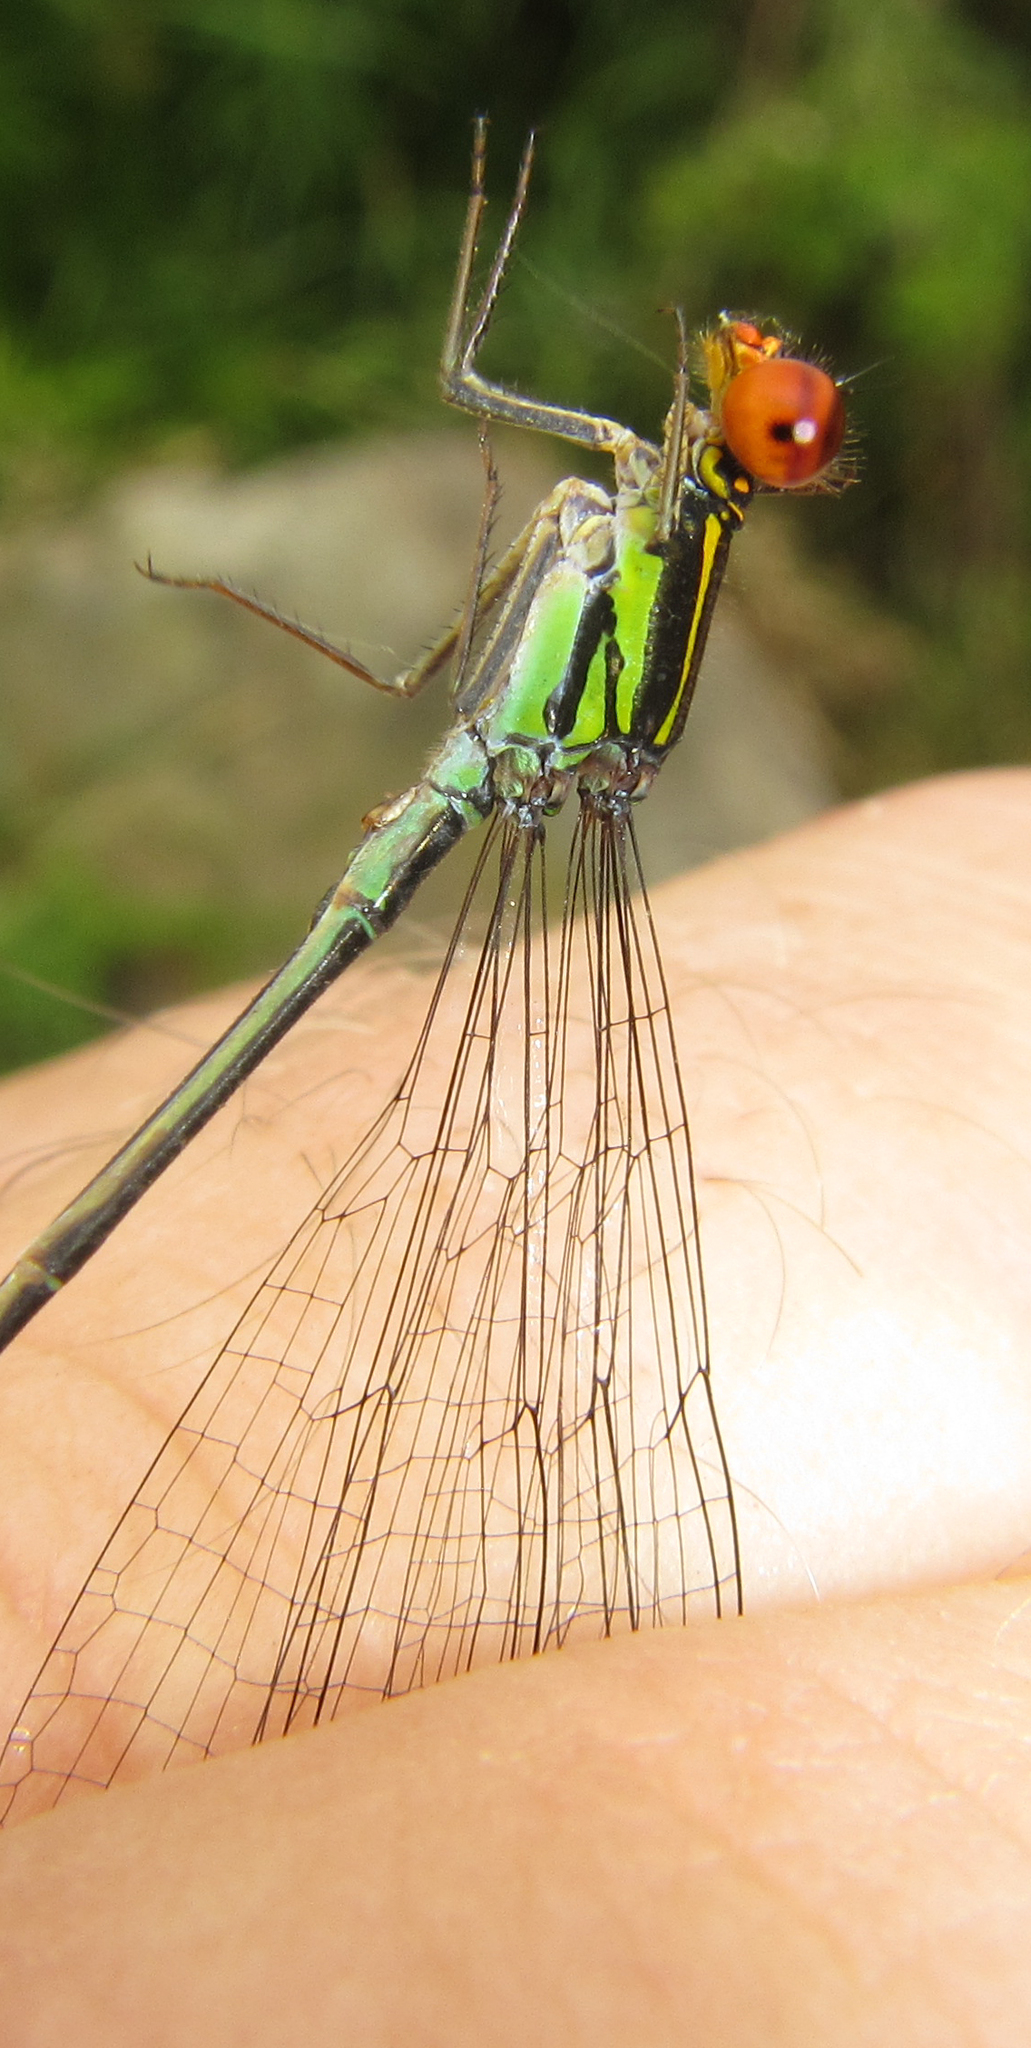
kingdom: Animalia
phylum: Arthropoda
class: Insecta
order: Odonata
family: Coenagrionidae
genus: Pseudagrion
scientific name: Pseudagrion hageni
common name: Painted sprite
